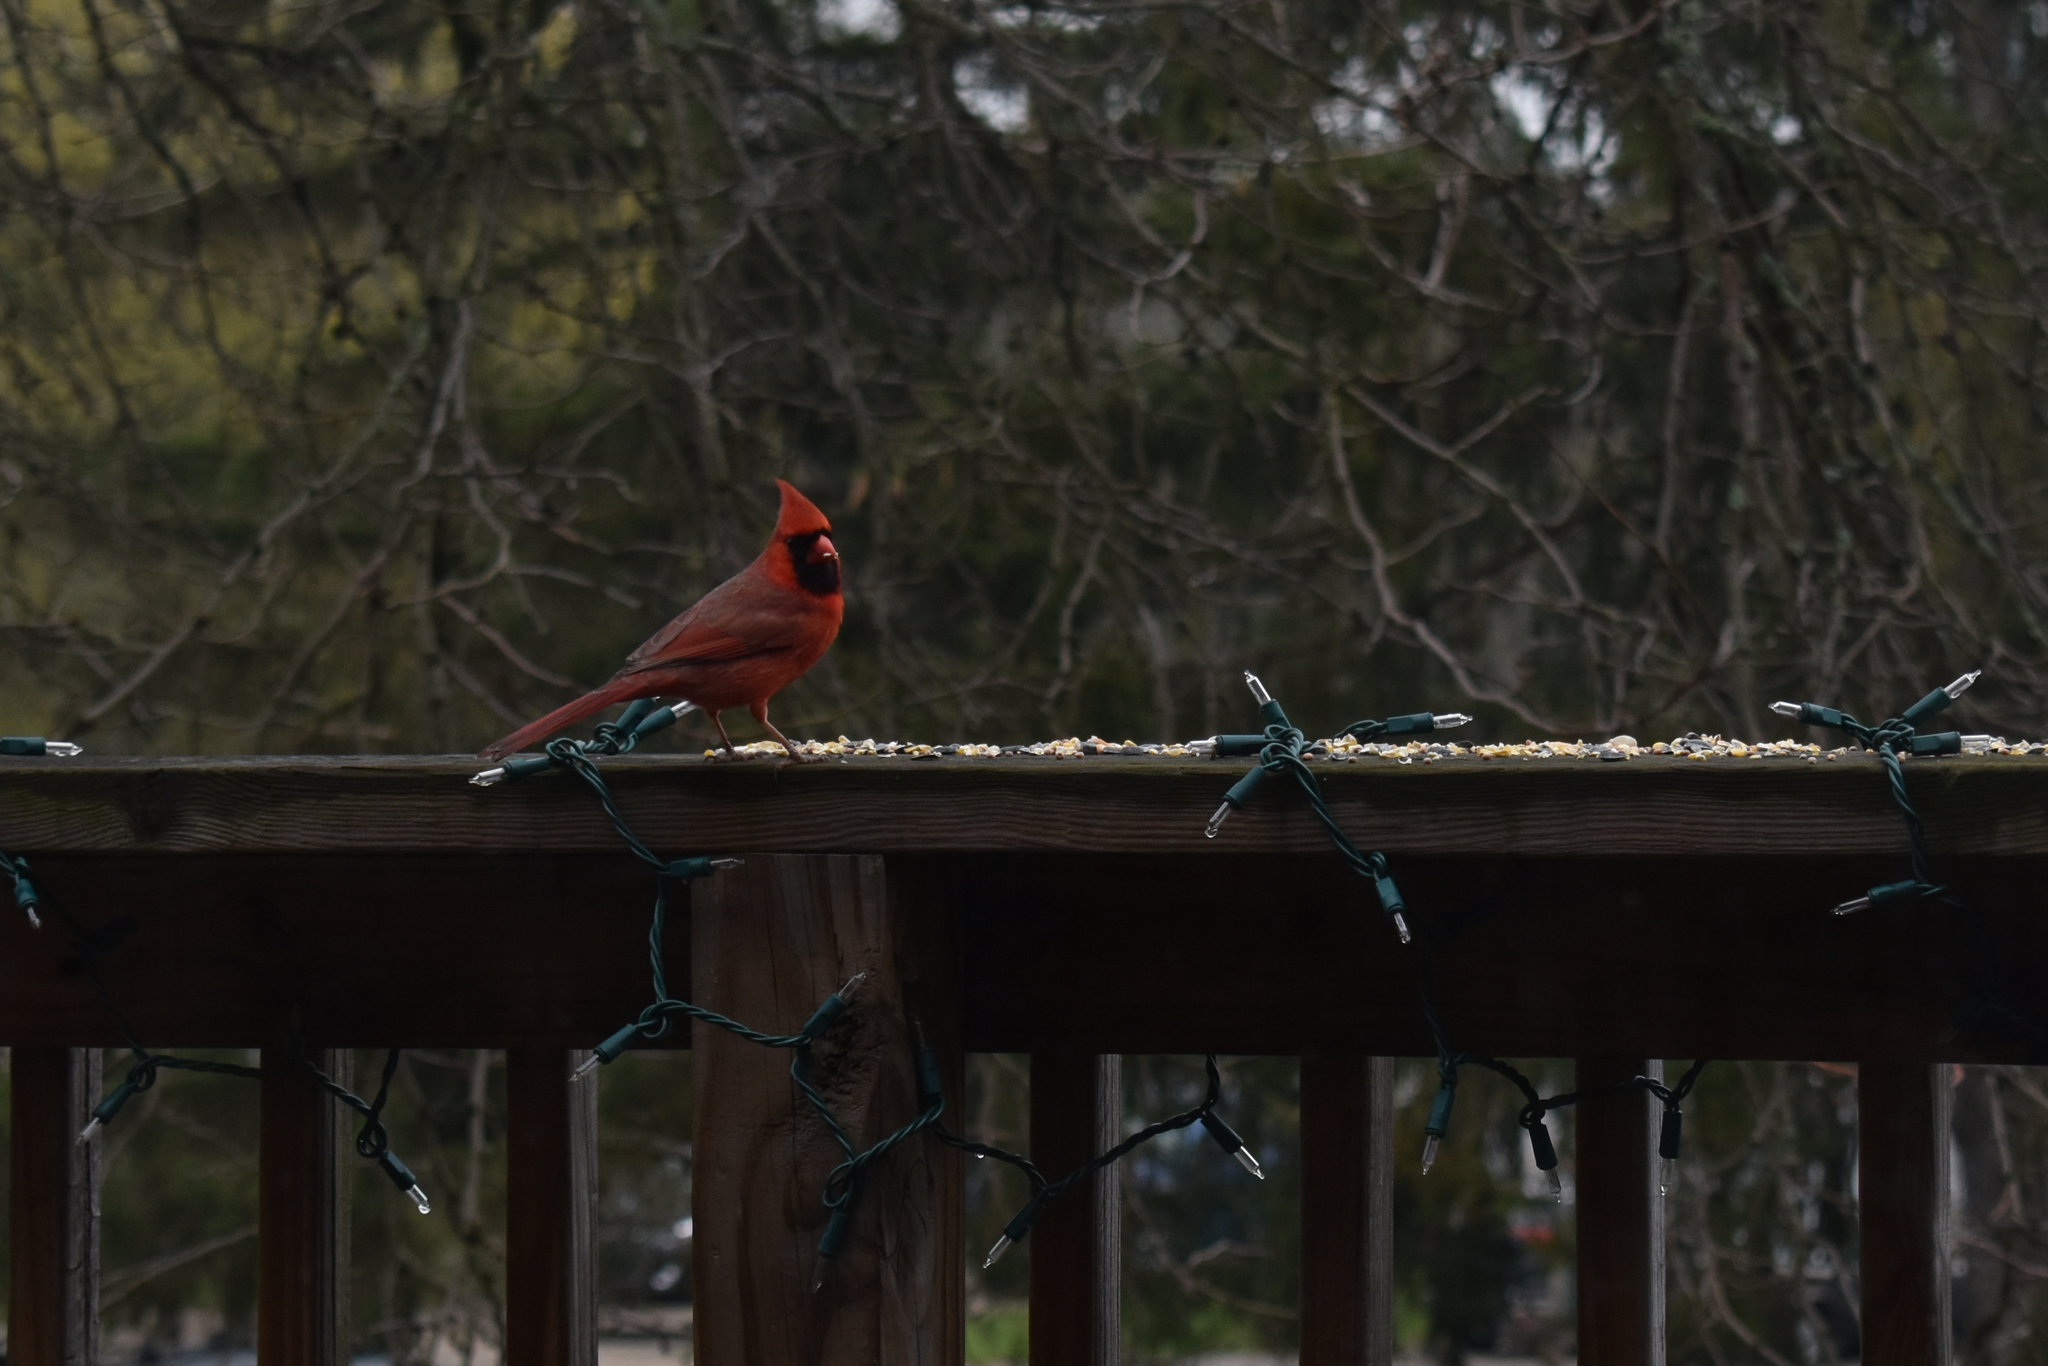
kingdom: Animalia
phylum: Chordata
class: Aves
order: Passeriformes
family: Cardinalidae
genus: Cardinalis
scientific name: Cardinalis cardinalis
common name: Northern cardinal
